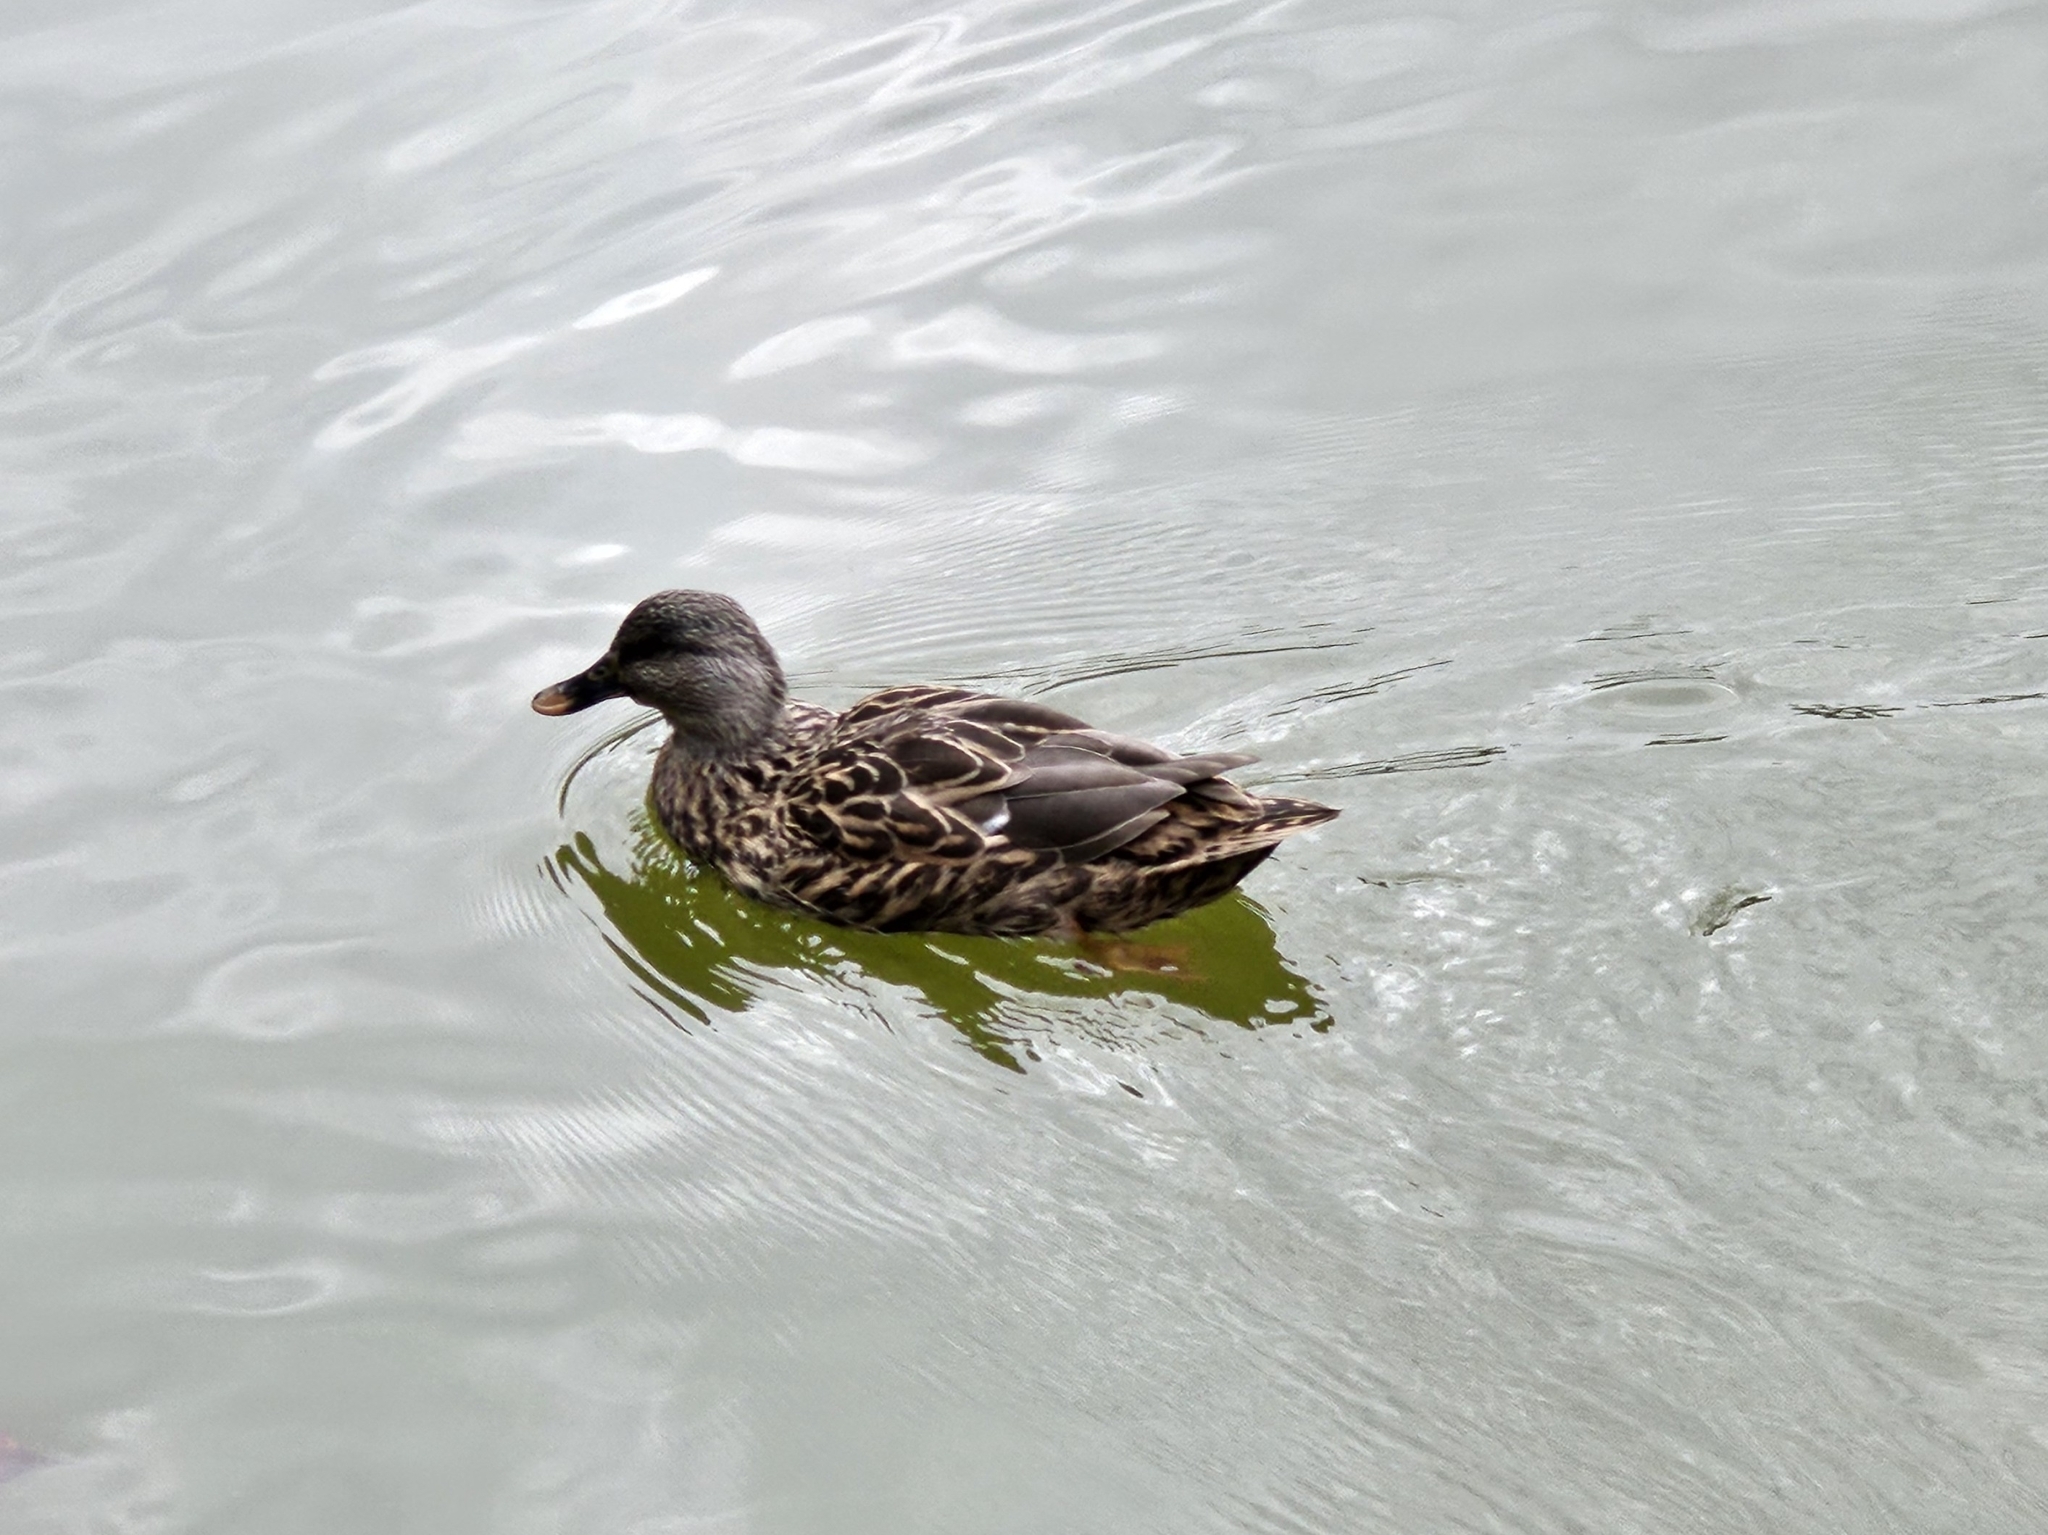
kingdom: Animalia
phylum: Chordata
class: Aves
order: Anseriformes
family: Anatidae
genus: Anas
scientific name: Anas platyrhynchos
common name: Mallard
